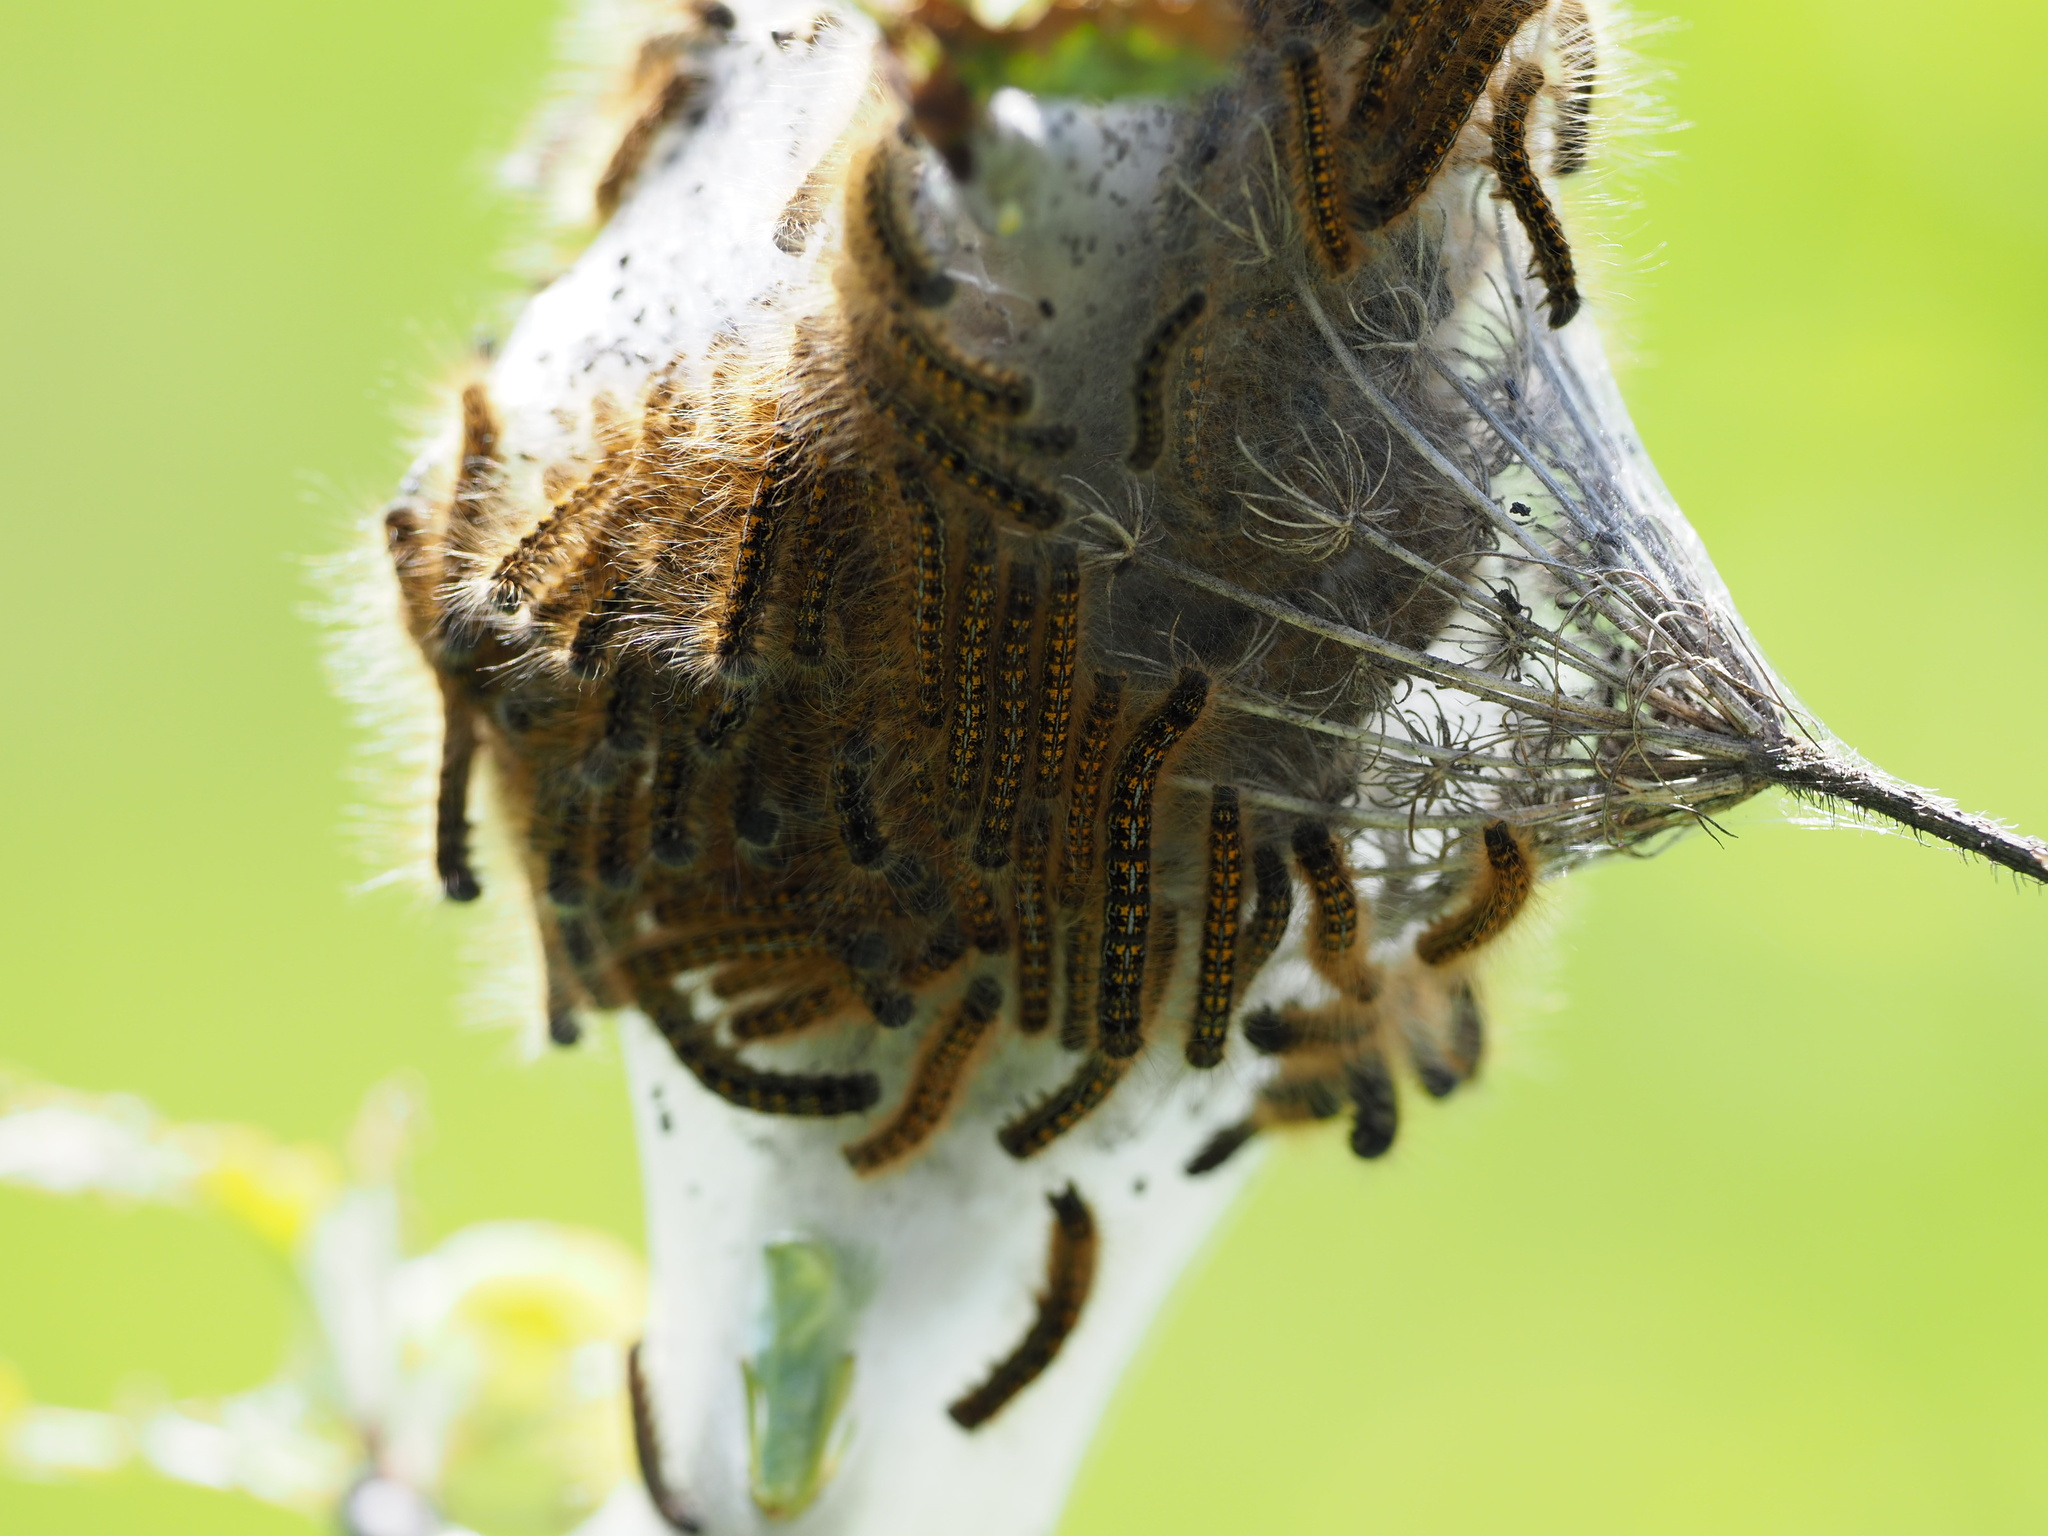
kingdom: Animalia
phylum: Arthropoda
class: Insecta
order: Lepidoptera
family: Lasiocampidae
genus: Malacosoma
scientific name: Malacosoma californica
